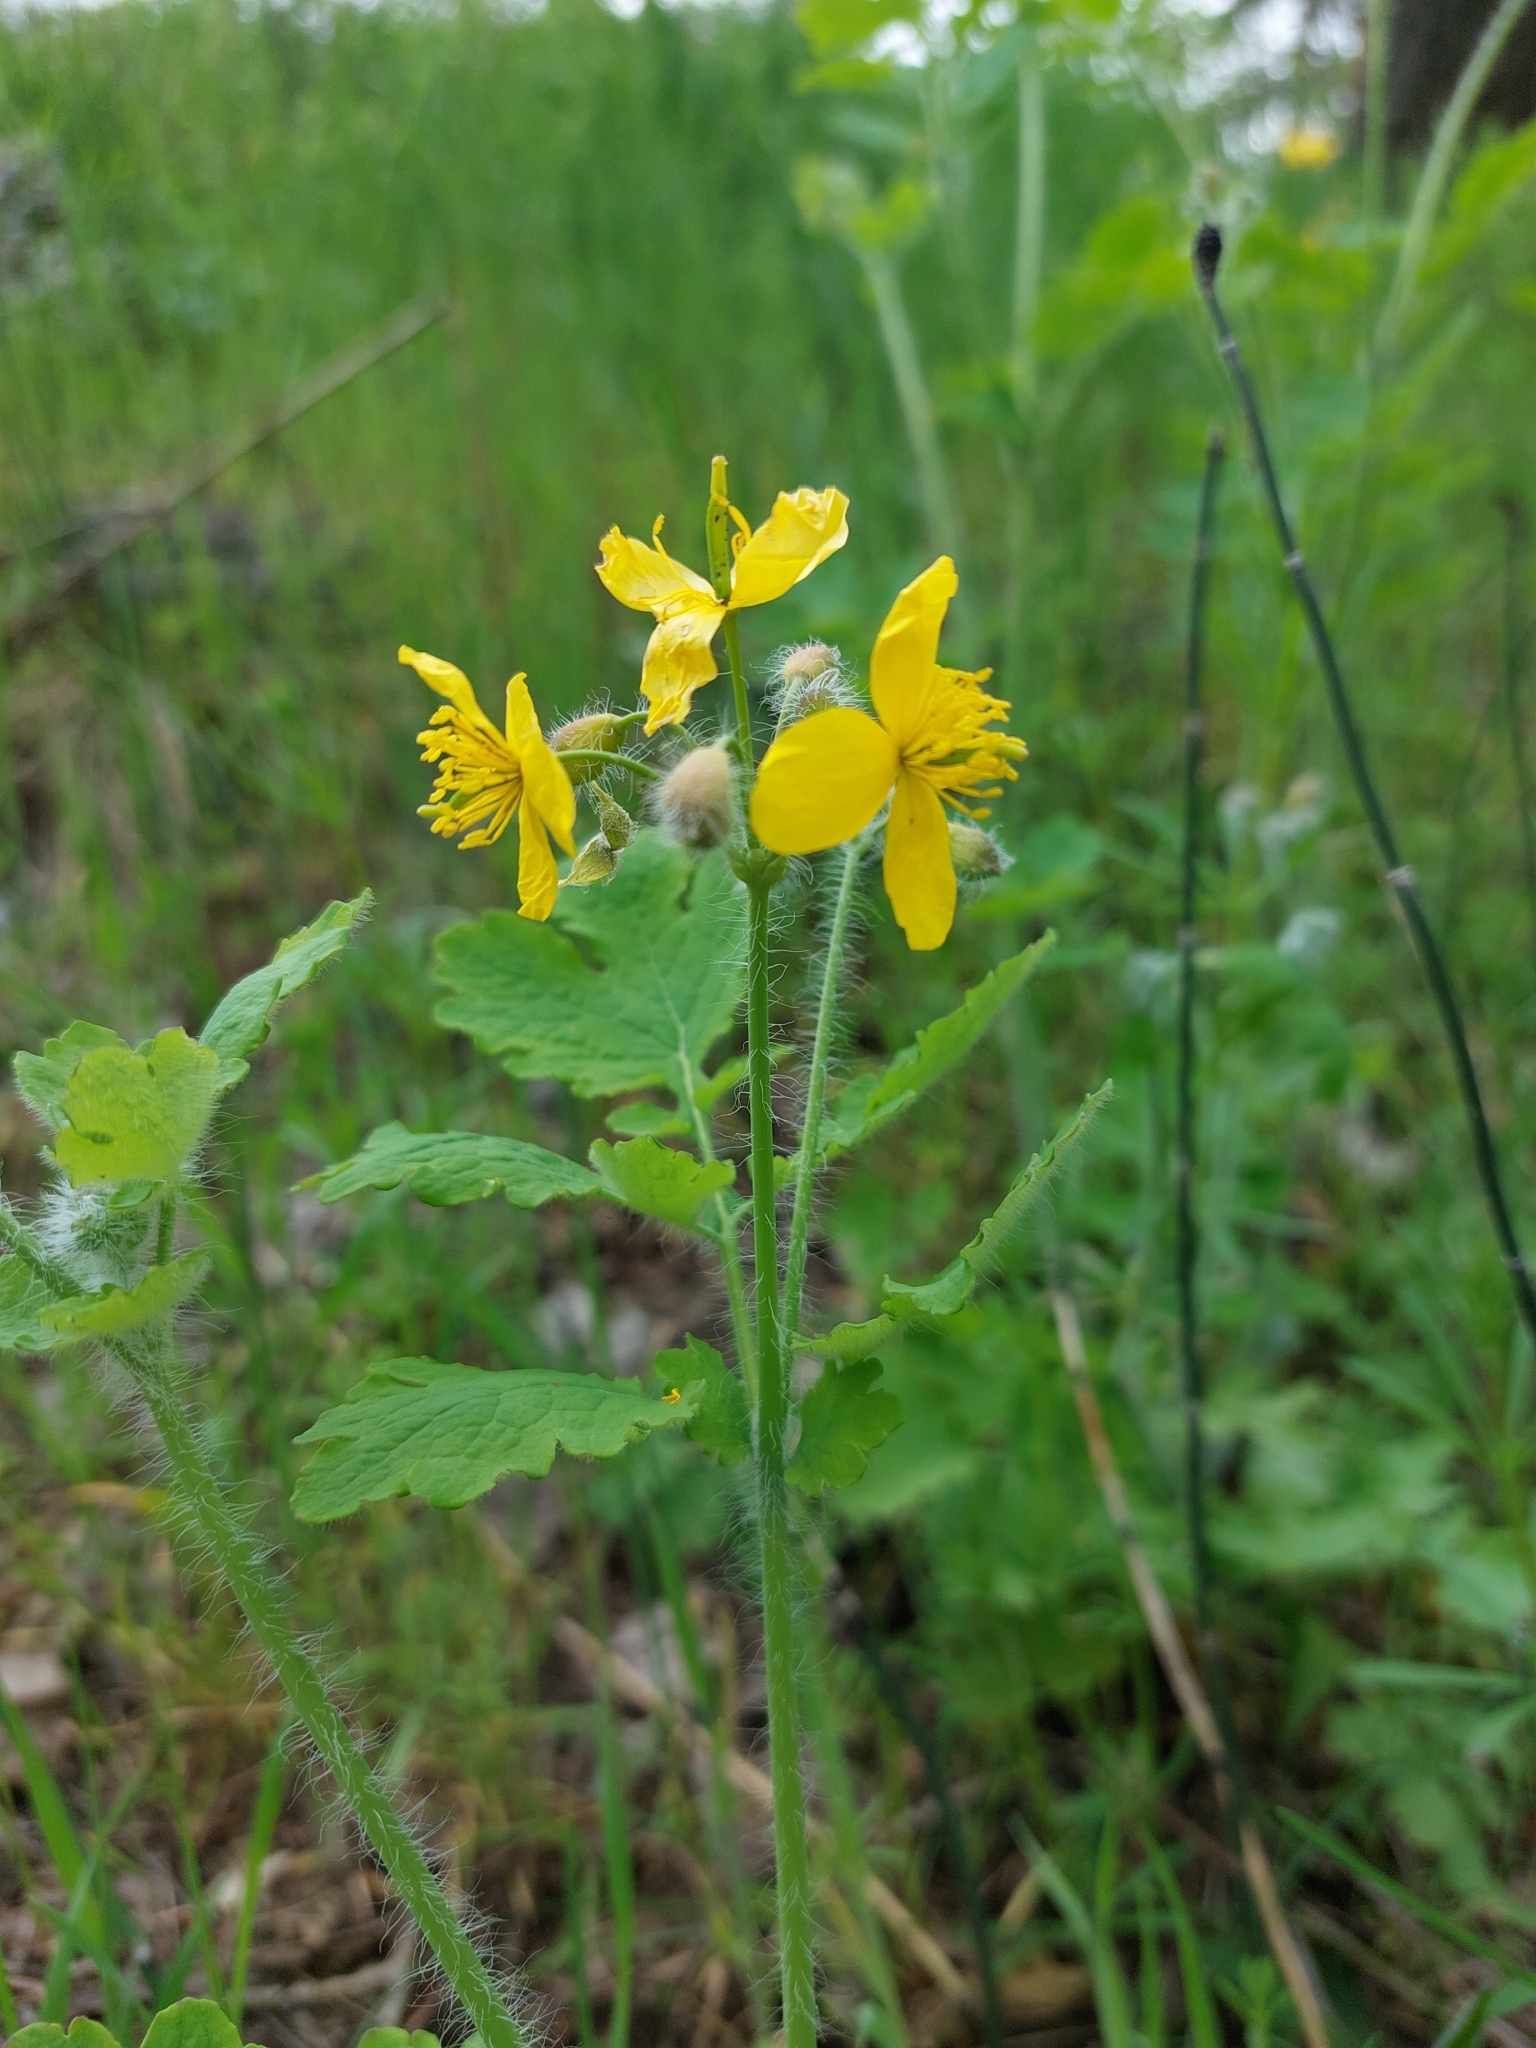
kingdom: Plantae
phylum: Tracheophyta
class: Magnoliopsida
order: Ranunculales
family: Papaveraceae
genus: Chelidonium
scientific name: Chelidonium majus
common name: Greater celandine
